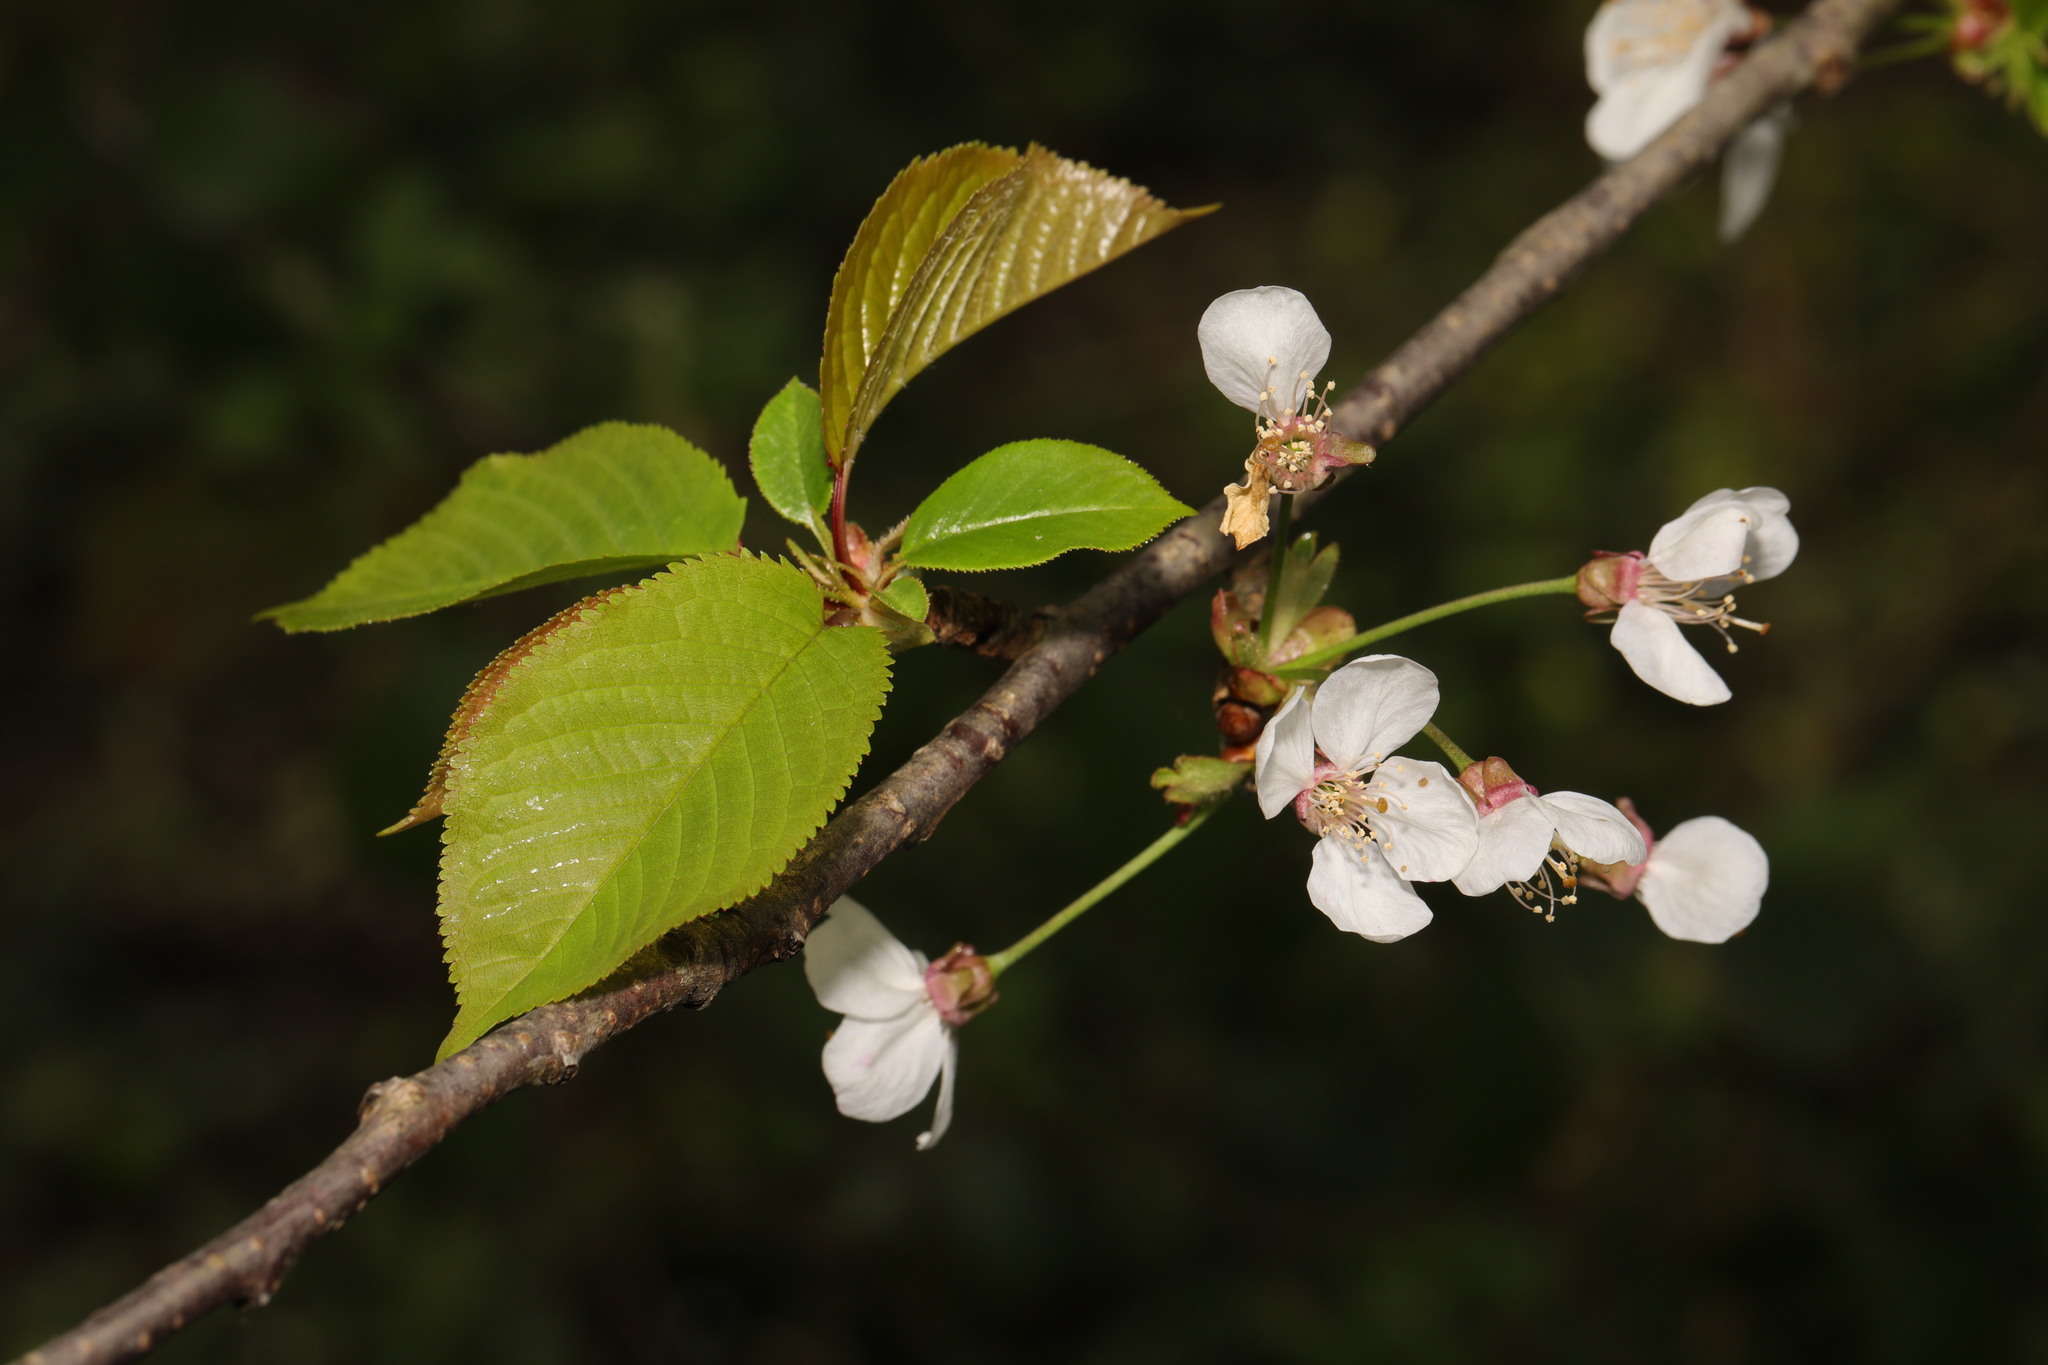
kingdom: Plantae
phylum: Tracheophyta
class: Magnoliopsida
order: Rosales
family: Rosaceae
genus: Prunus
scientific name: Prunus avium
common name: Sweet cherry
